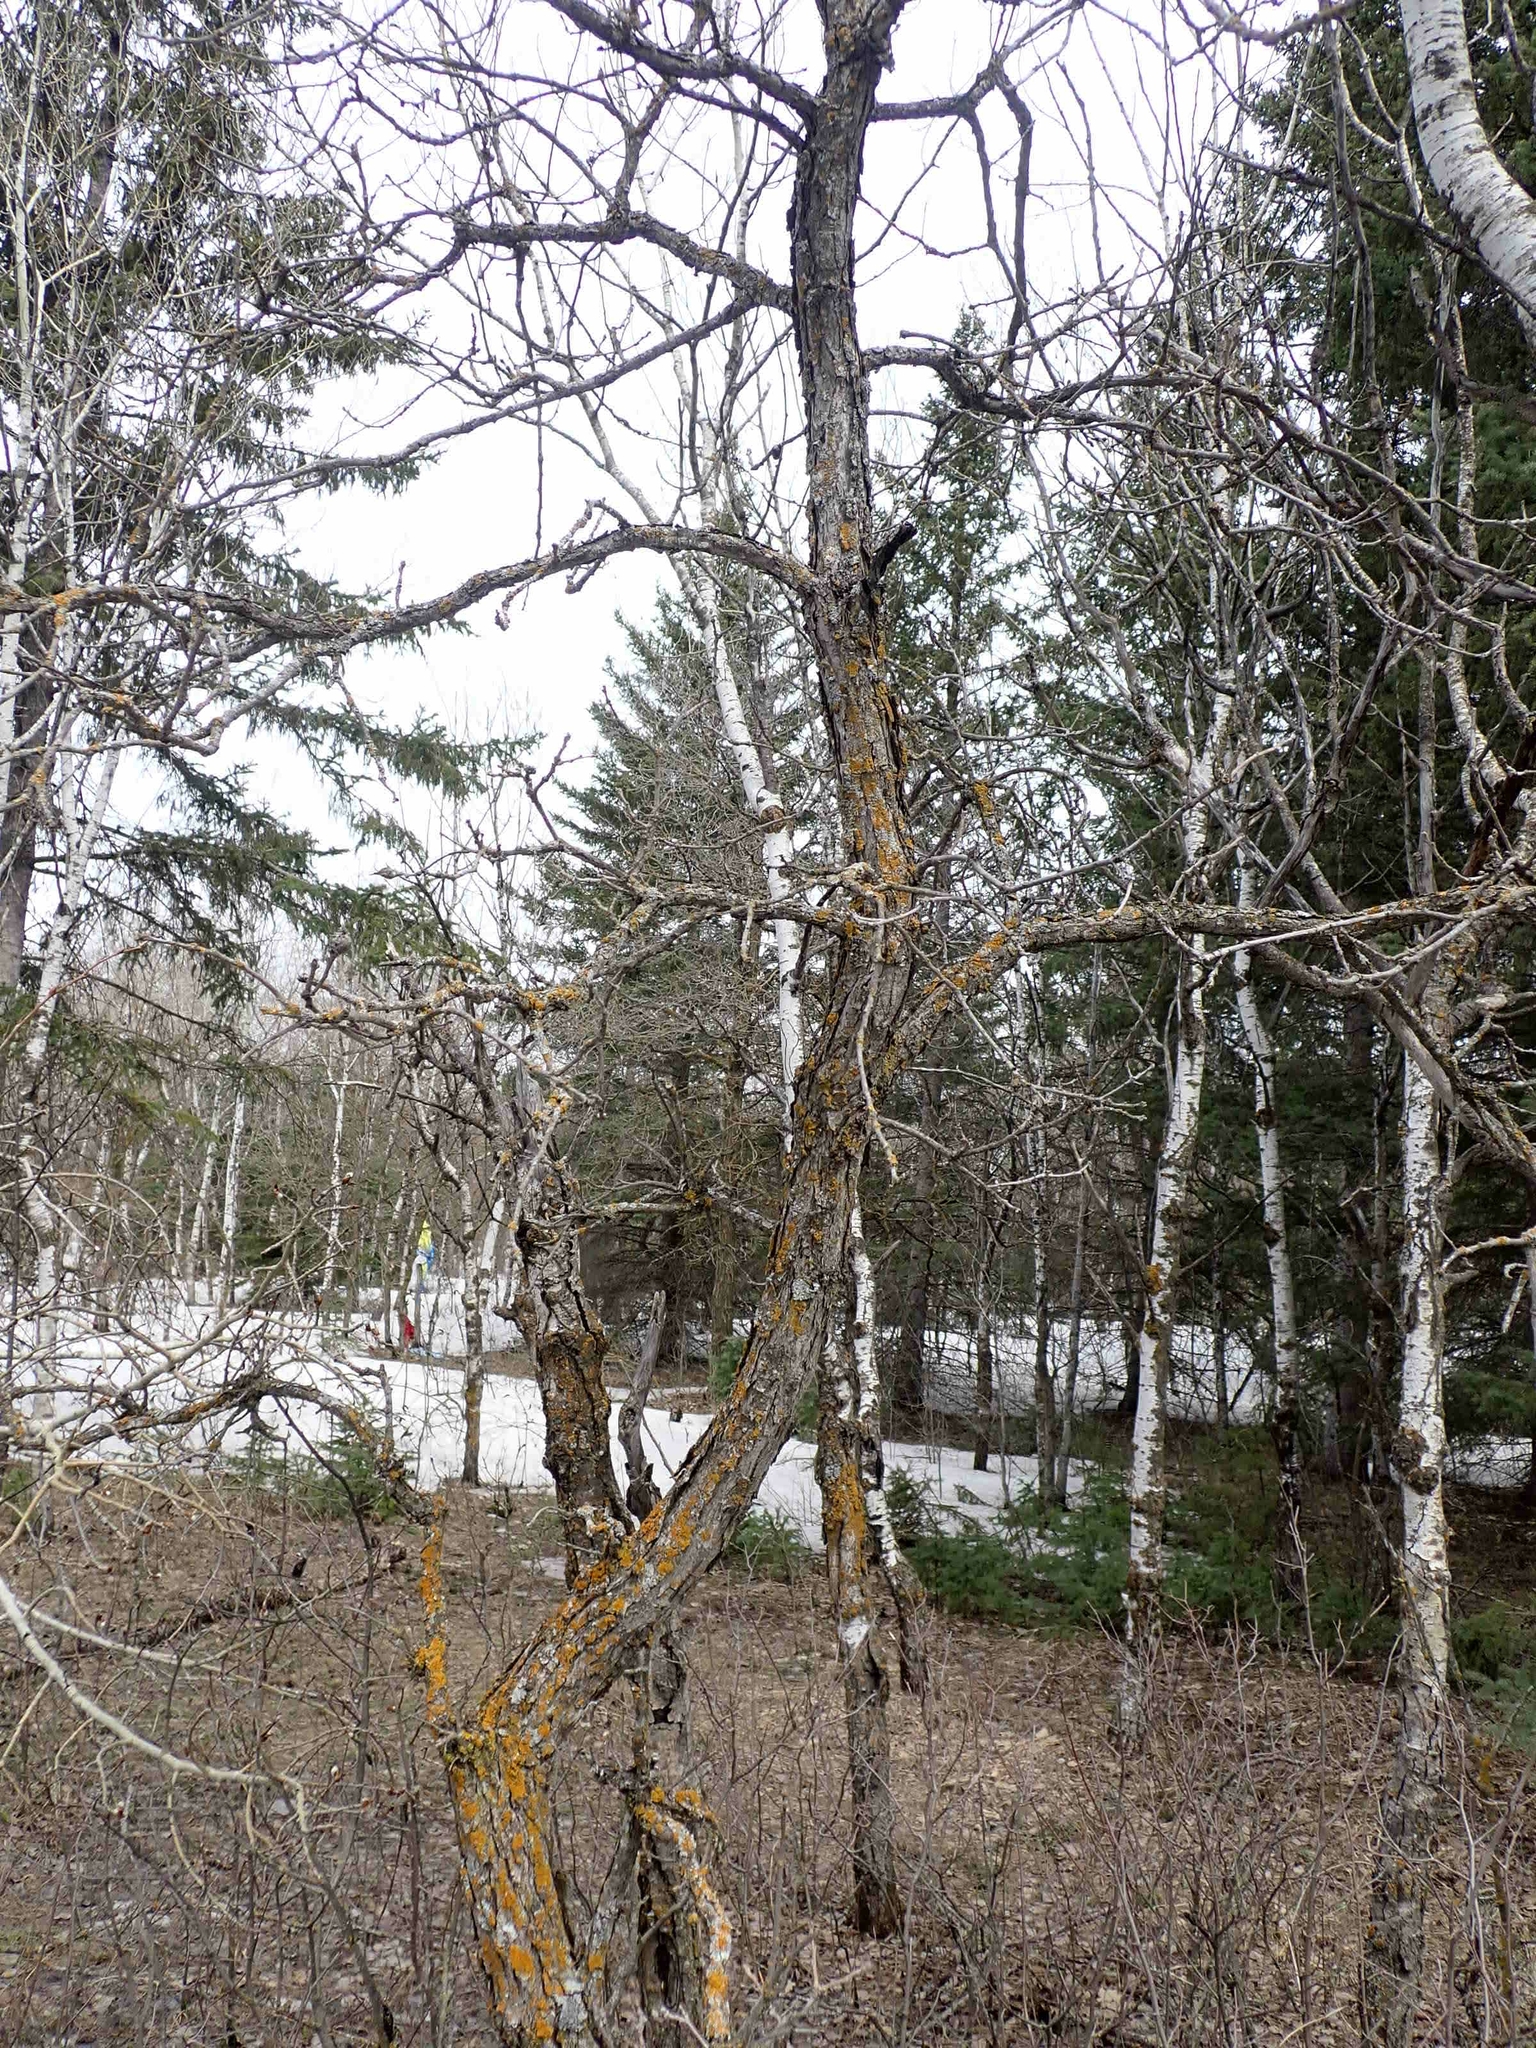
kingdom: Plantae
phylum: Tracheophyta
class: Magnoliopsida
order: Fagales
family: Fagaceae
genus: Quercus
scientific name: Quercus macrocarpa
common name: Bur oak
